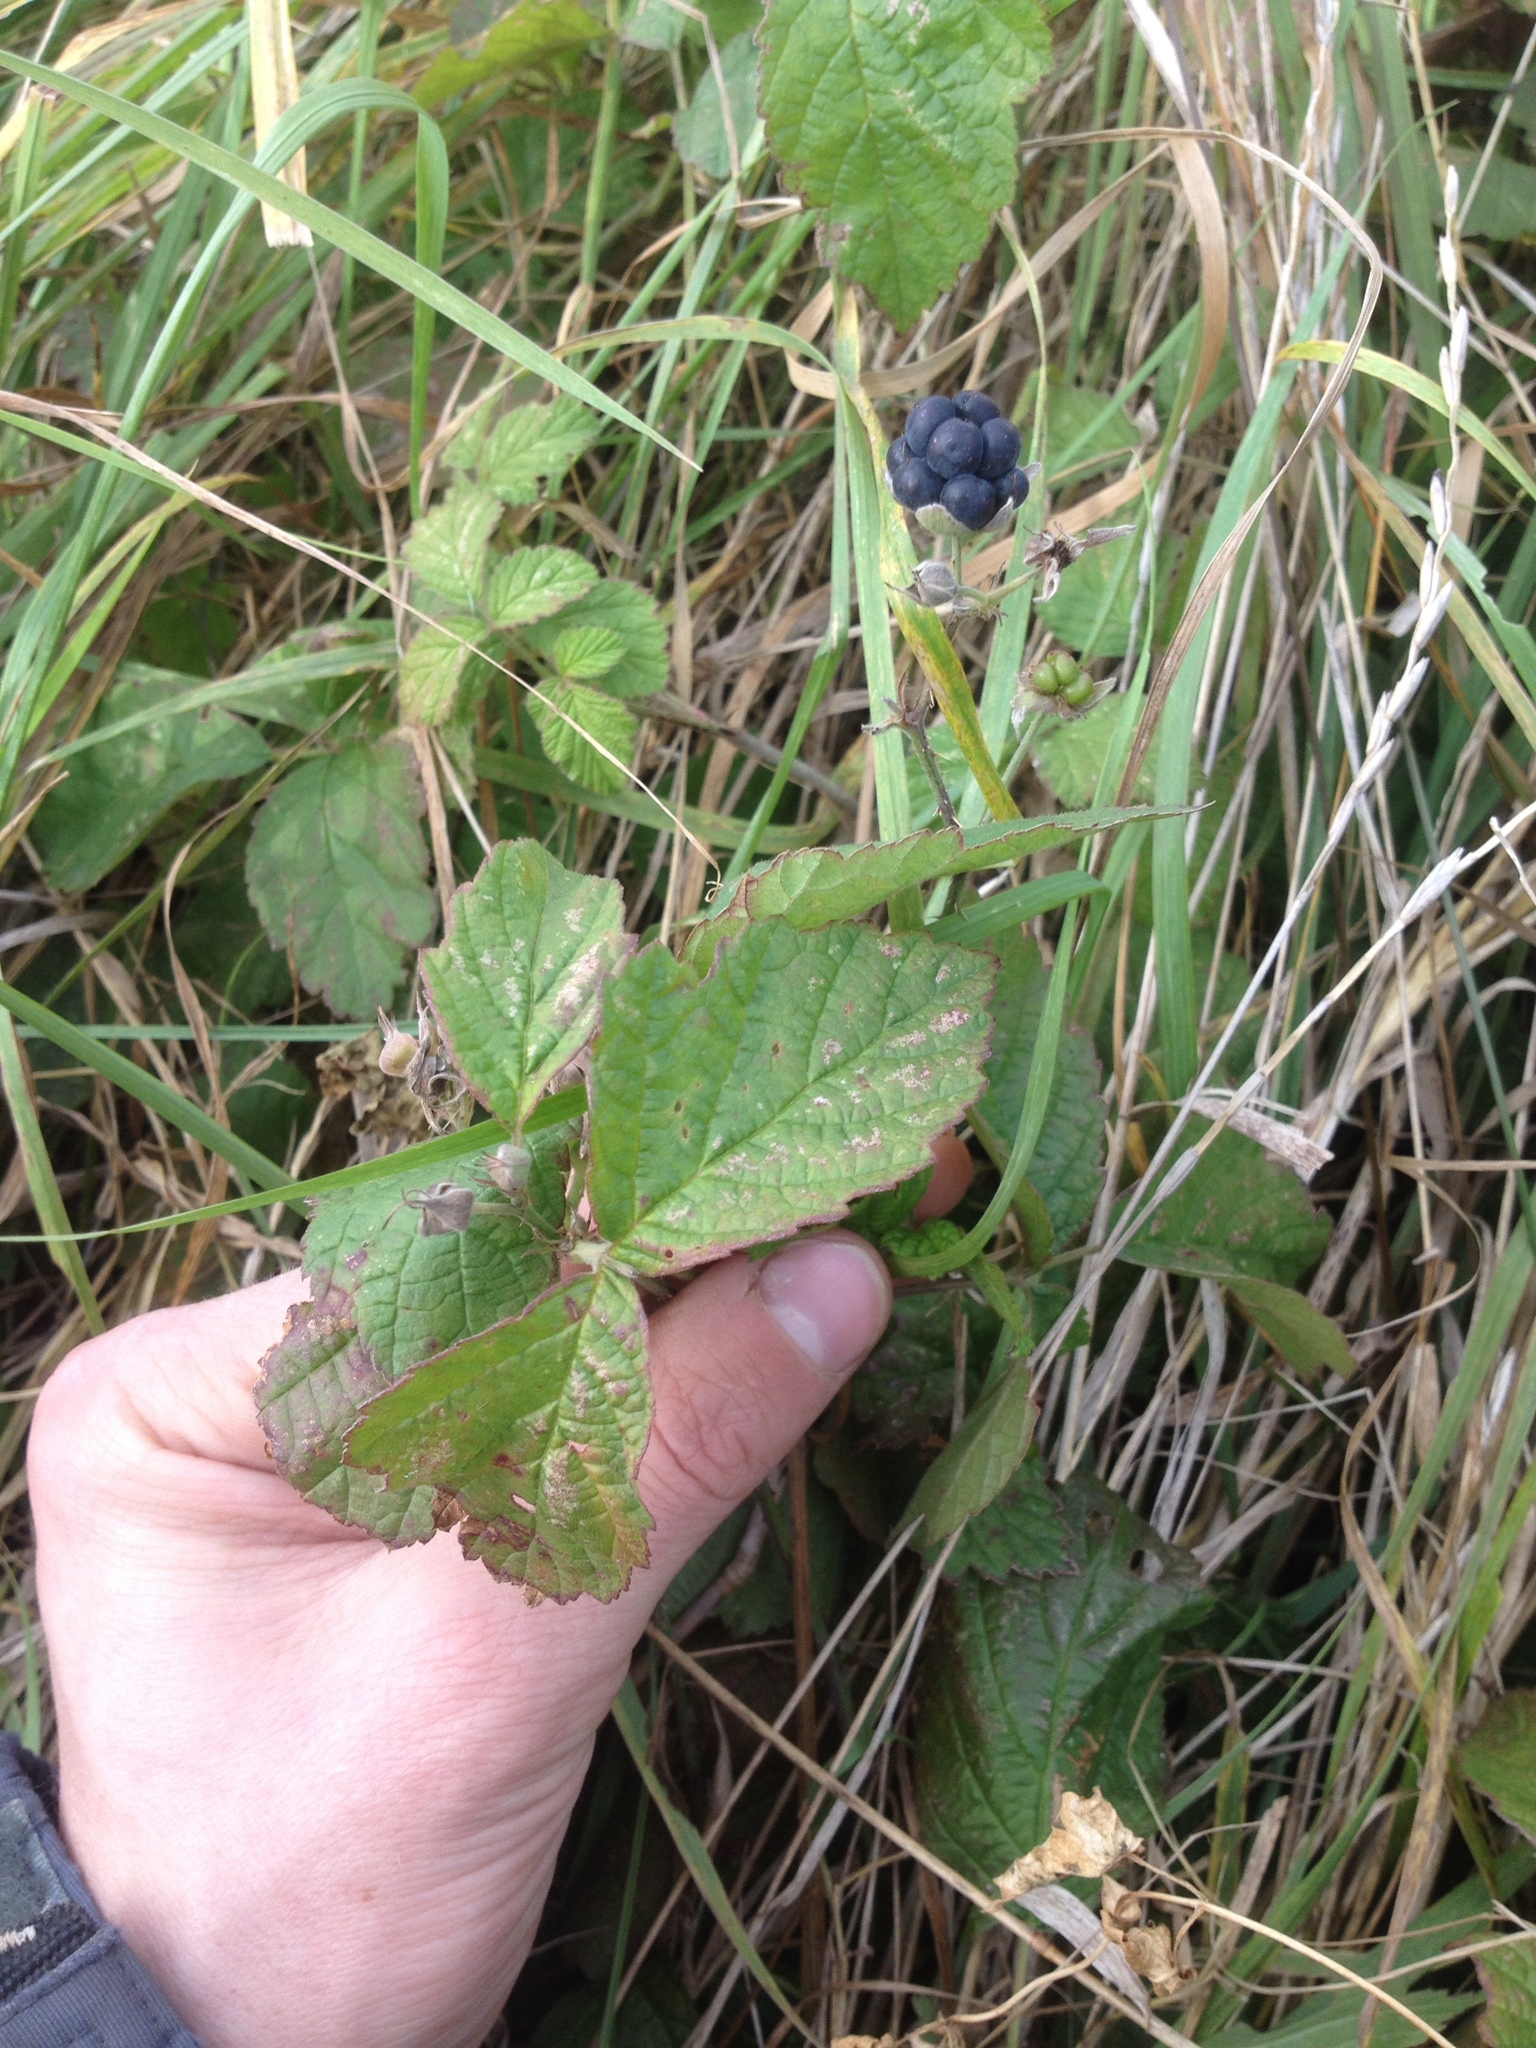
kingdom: Plantae
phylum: Tracheophyta
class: Magnoliopsida
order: Rosales
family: Rosaceae
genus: Rubus
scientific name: Rubus caesius
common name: Dewberry
